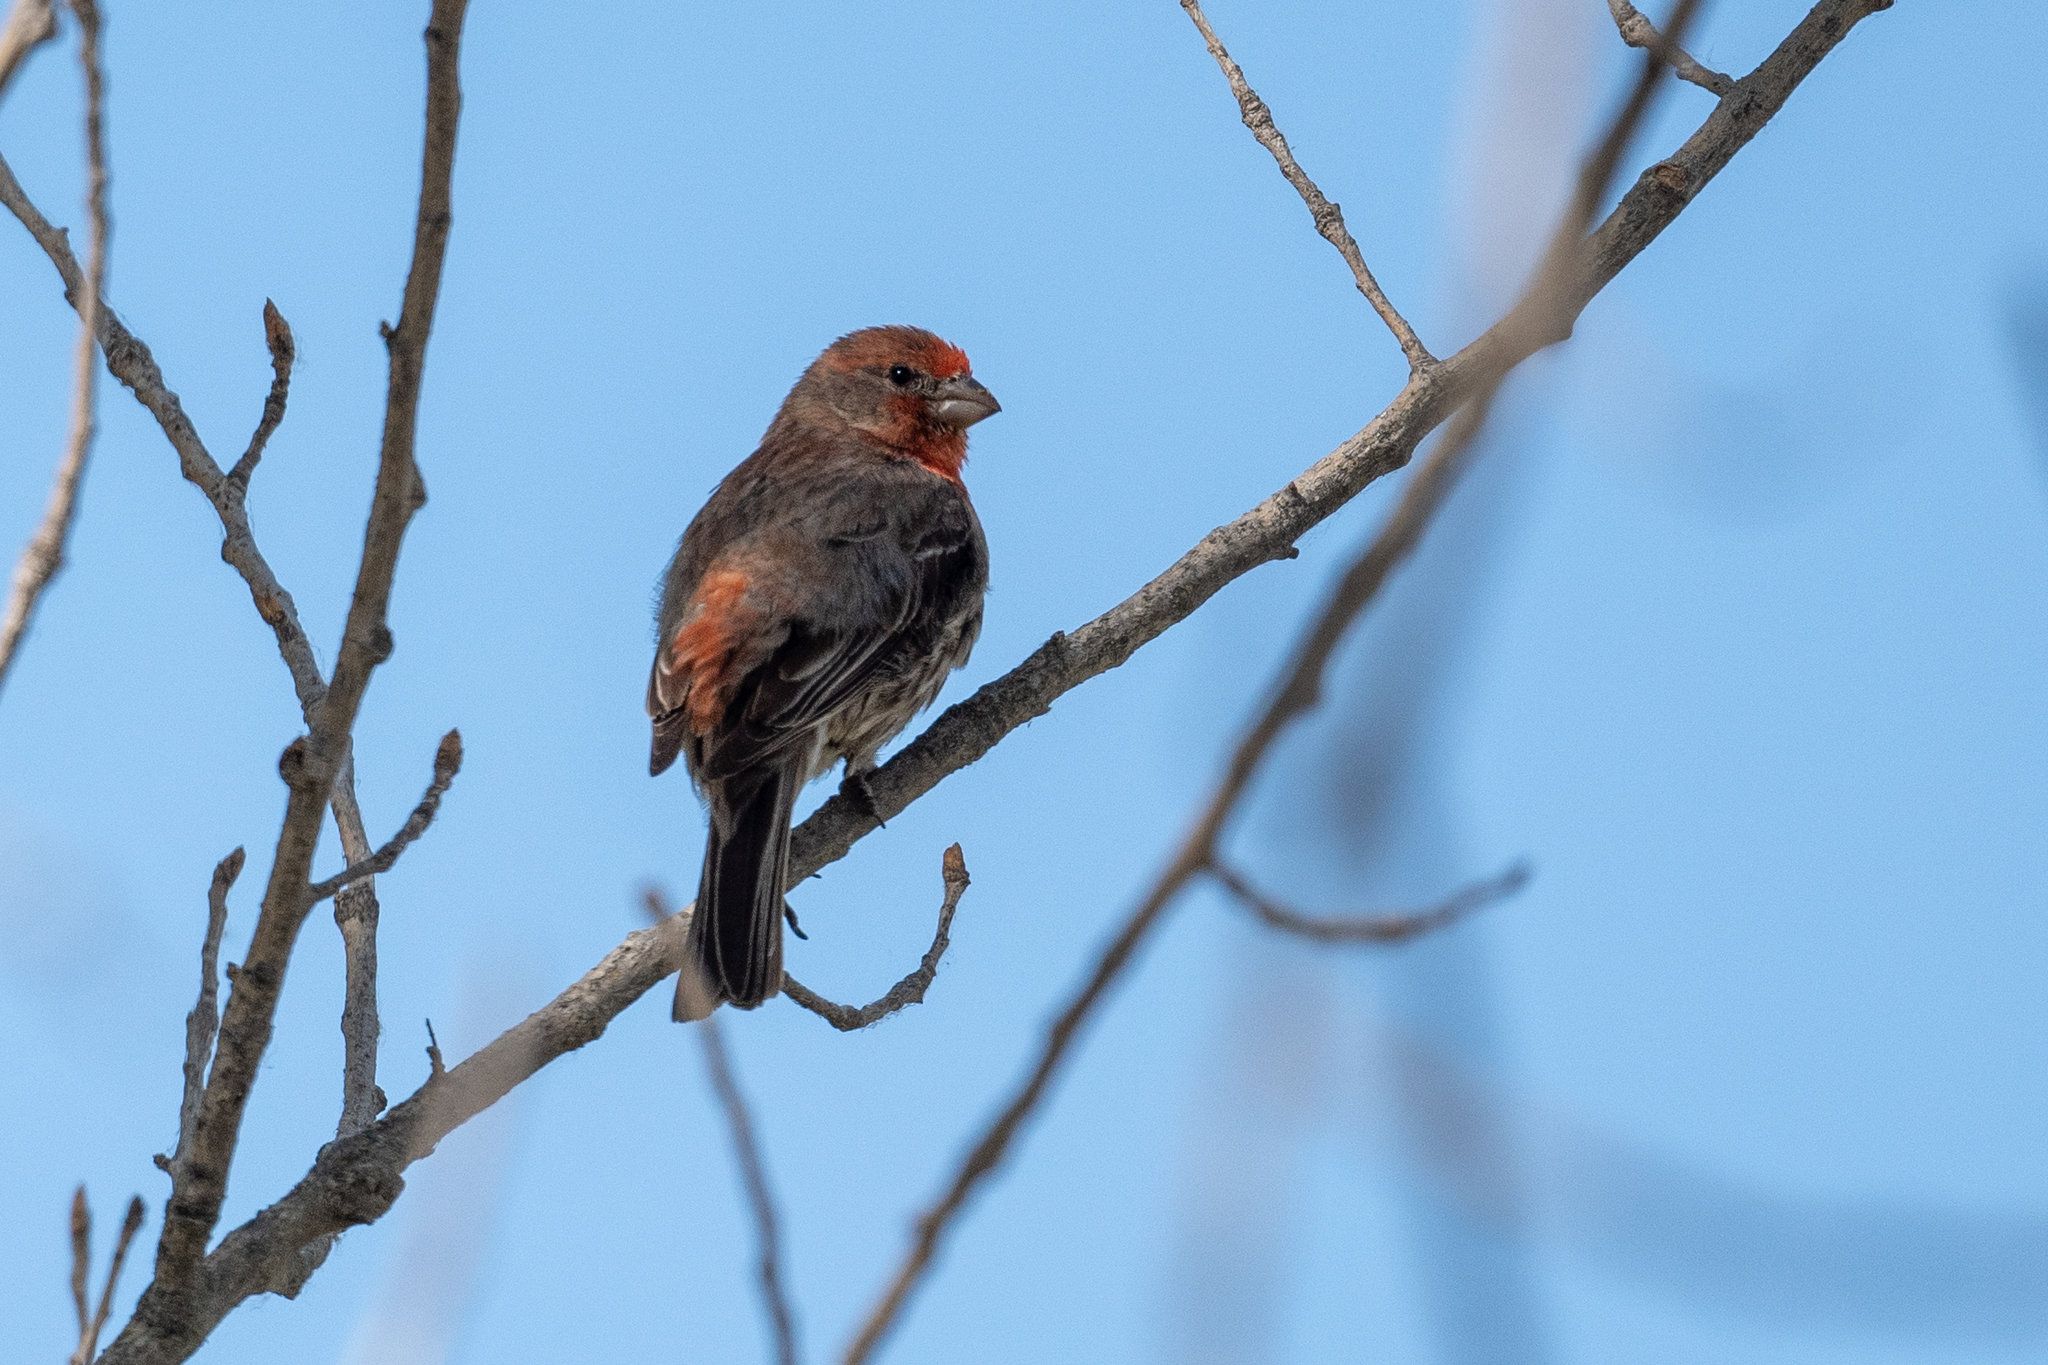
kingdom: Animalia
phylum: Chordata
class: Aves
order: Passeriformes
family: Fringillidae
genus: Haemorhous
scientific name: Haemorhous mexicanus
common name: House finch
